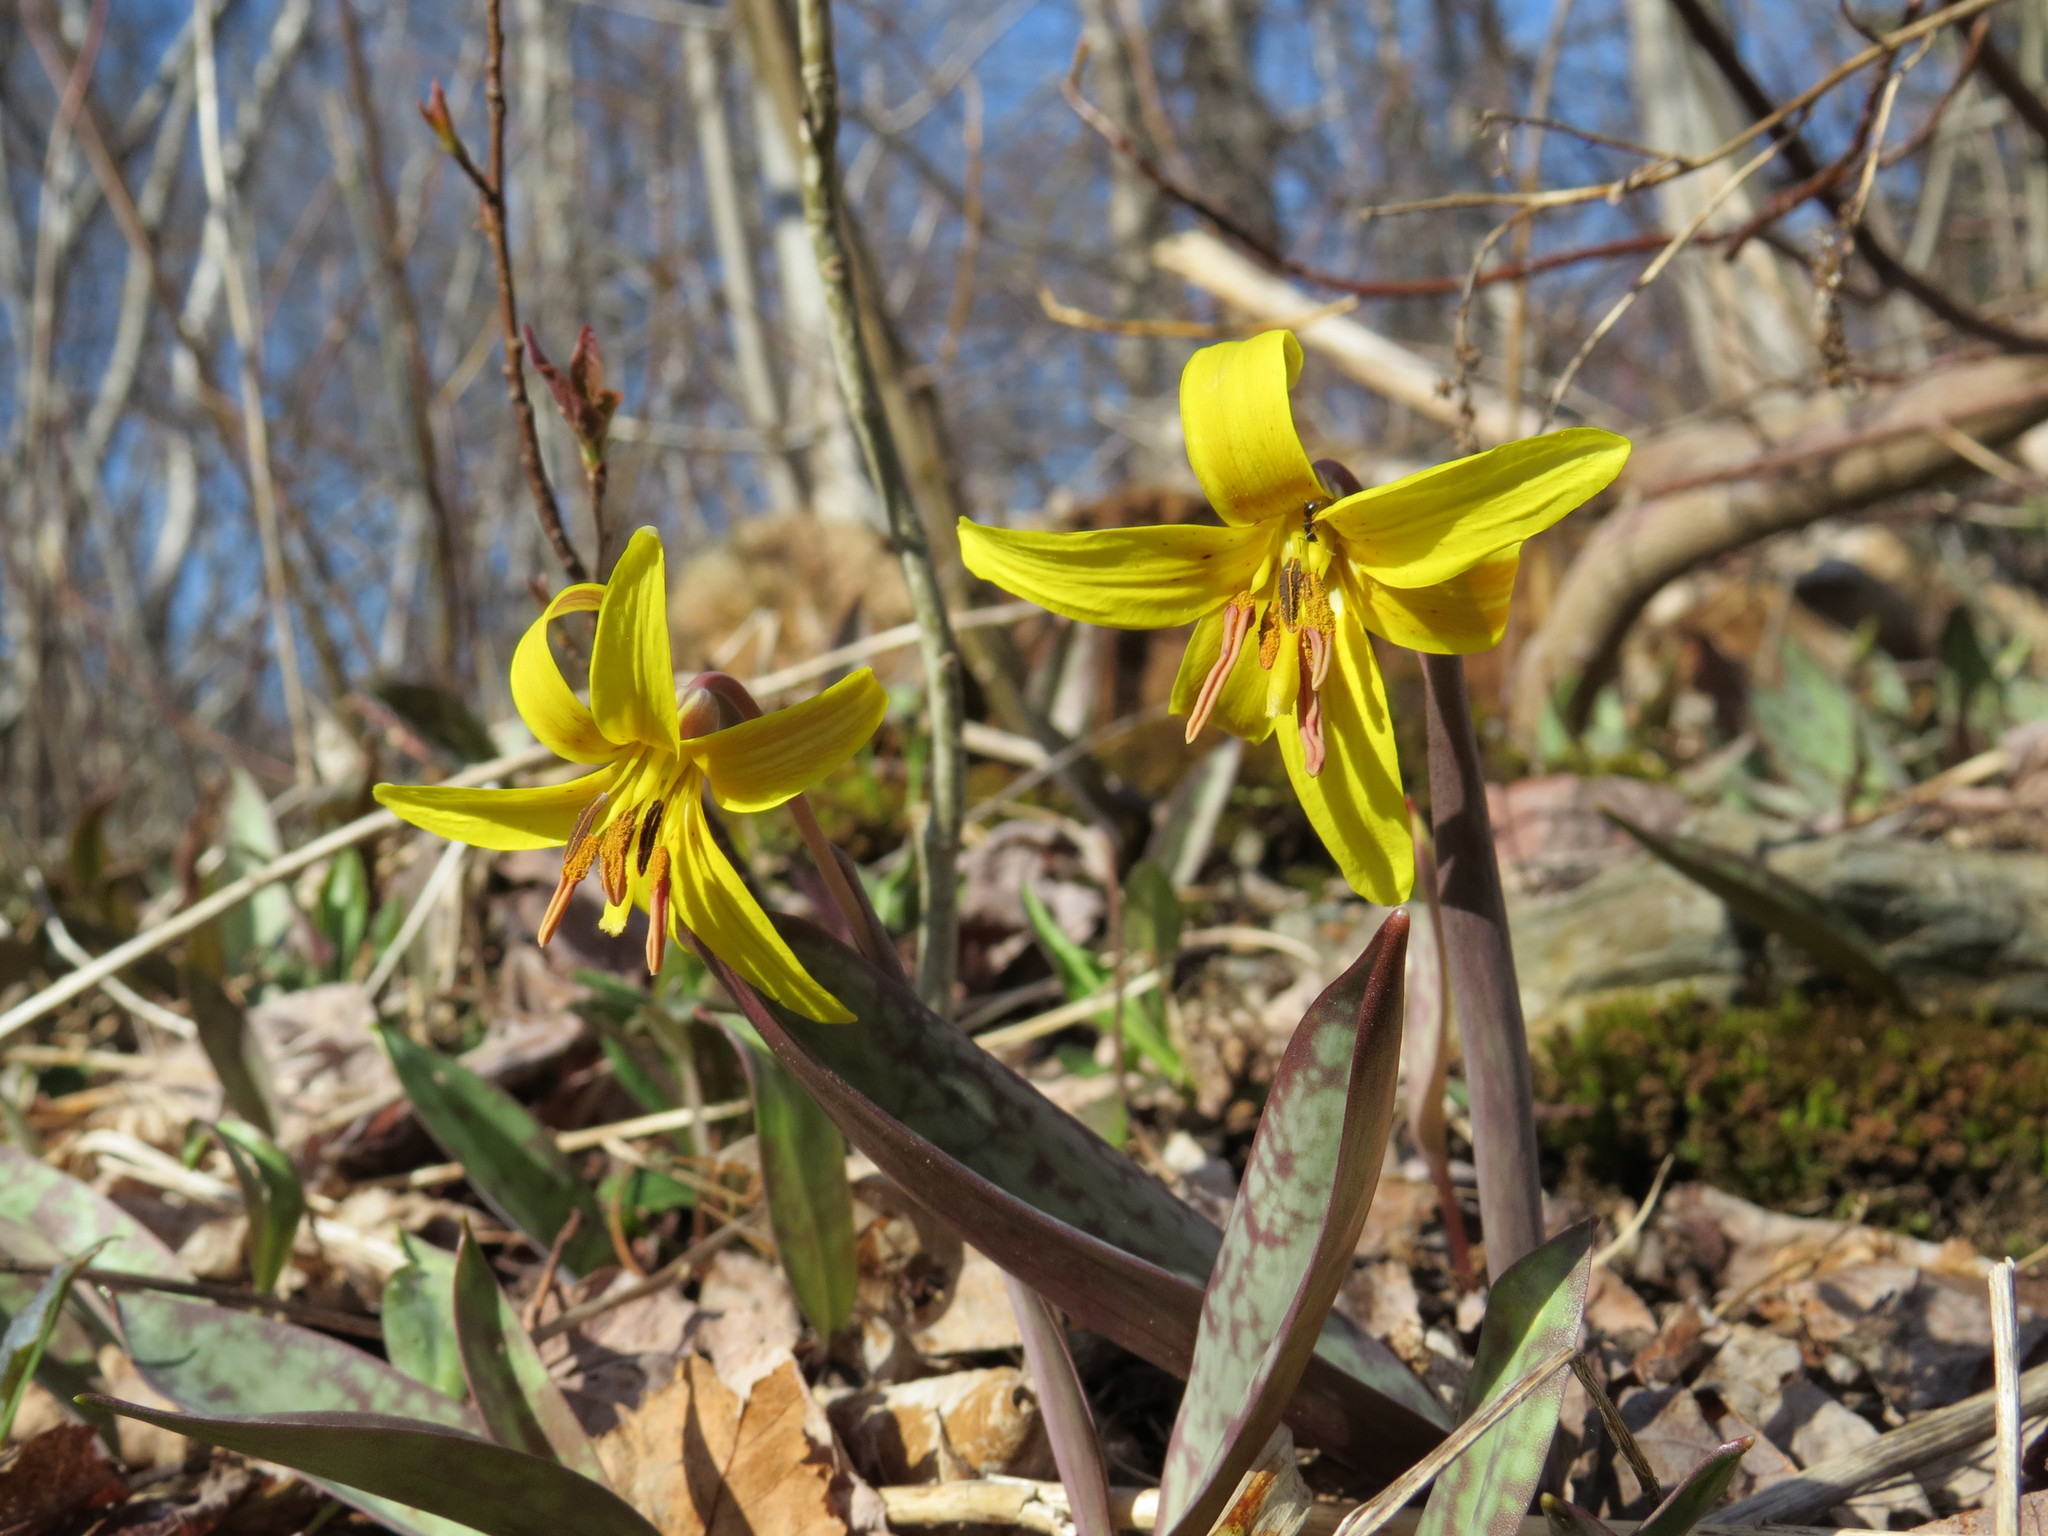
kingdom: Plantae
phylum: Tracheophyta
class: Liliopsida
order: Liliales
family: Liliaceae
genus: Erythronium
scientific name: Erythronium americanum
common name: Yellow adder's-tongue
